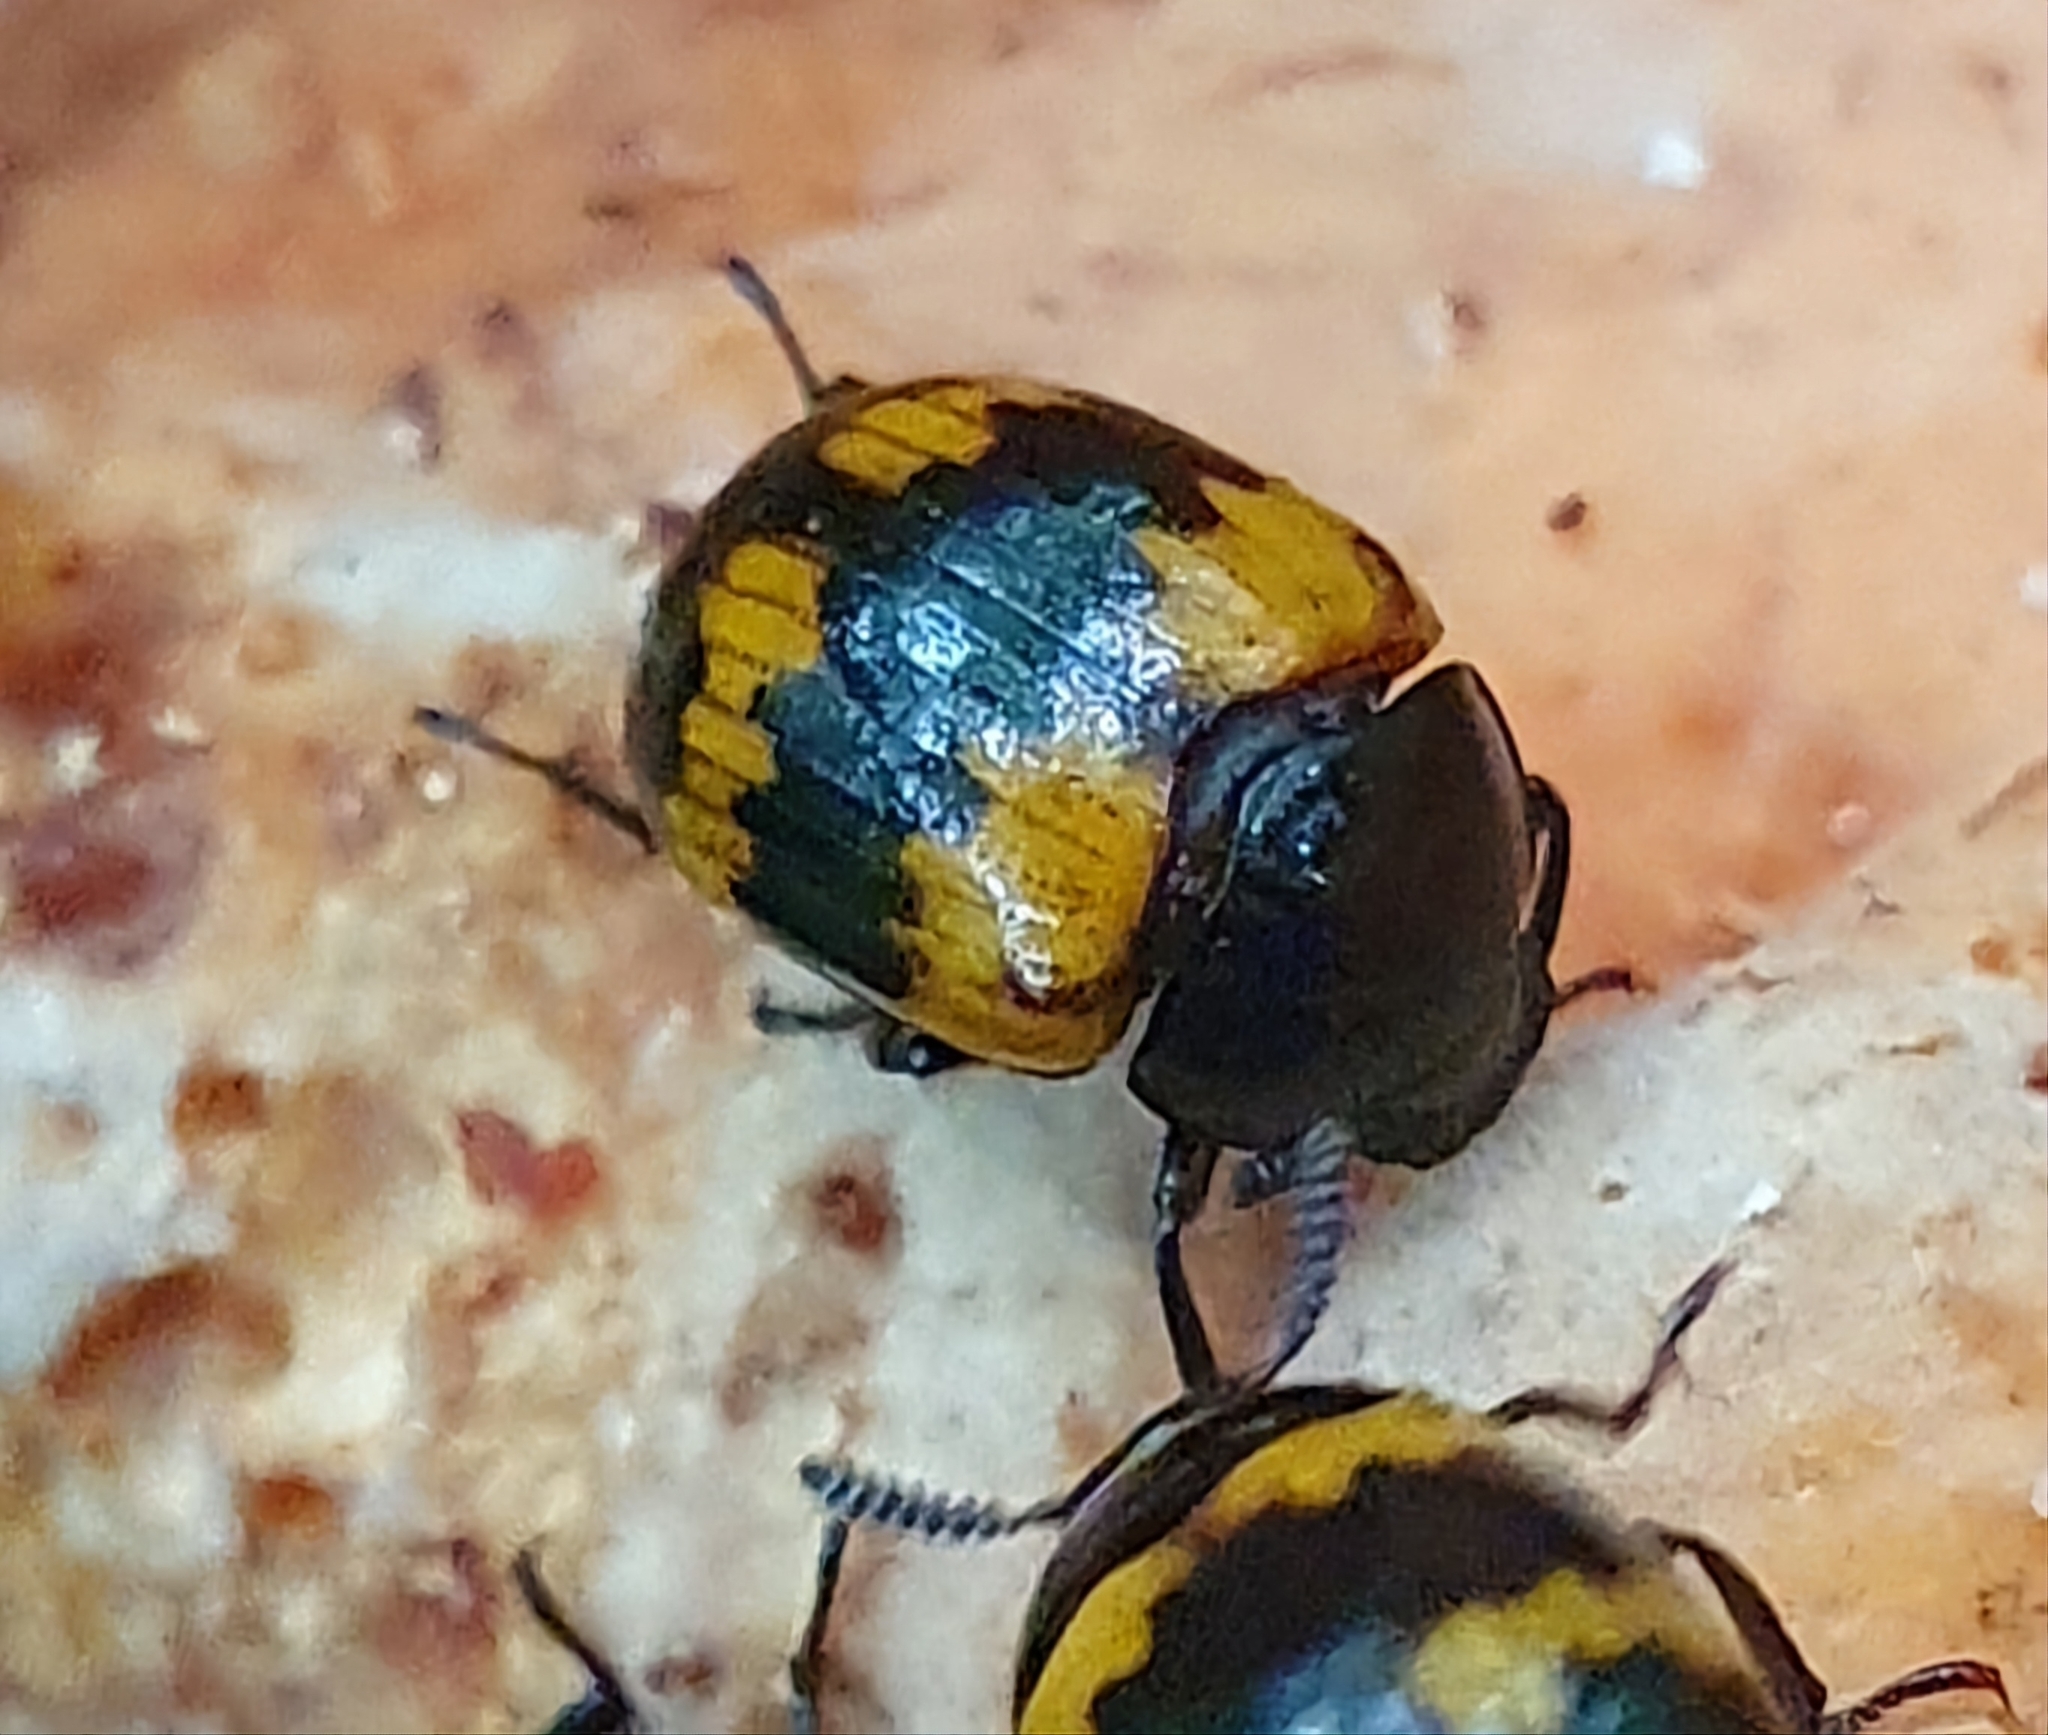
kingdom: Animalia
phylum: Arthropoda
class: Insecta
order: Coleoptera
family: Tenebrionidae
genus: Diaperis
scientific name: Diaperis boleti
